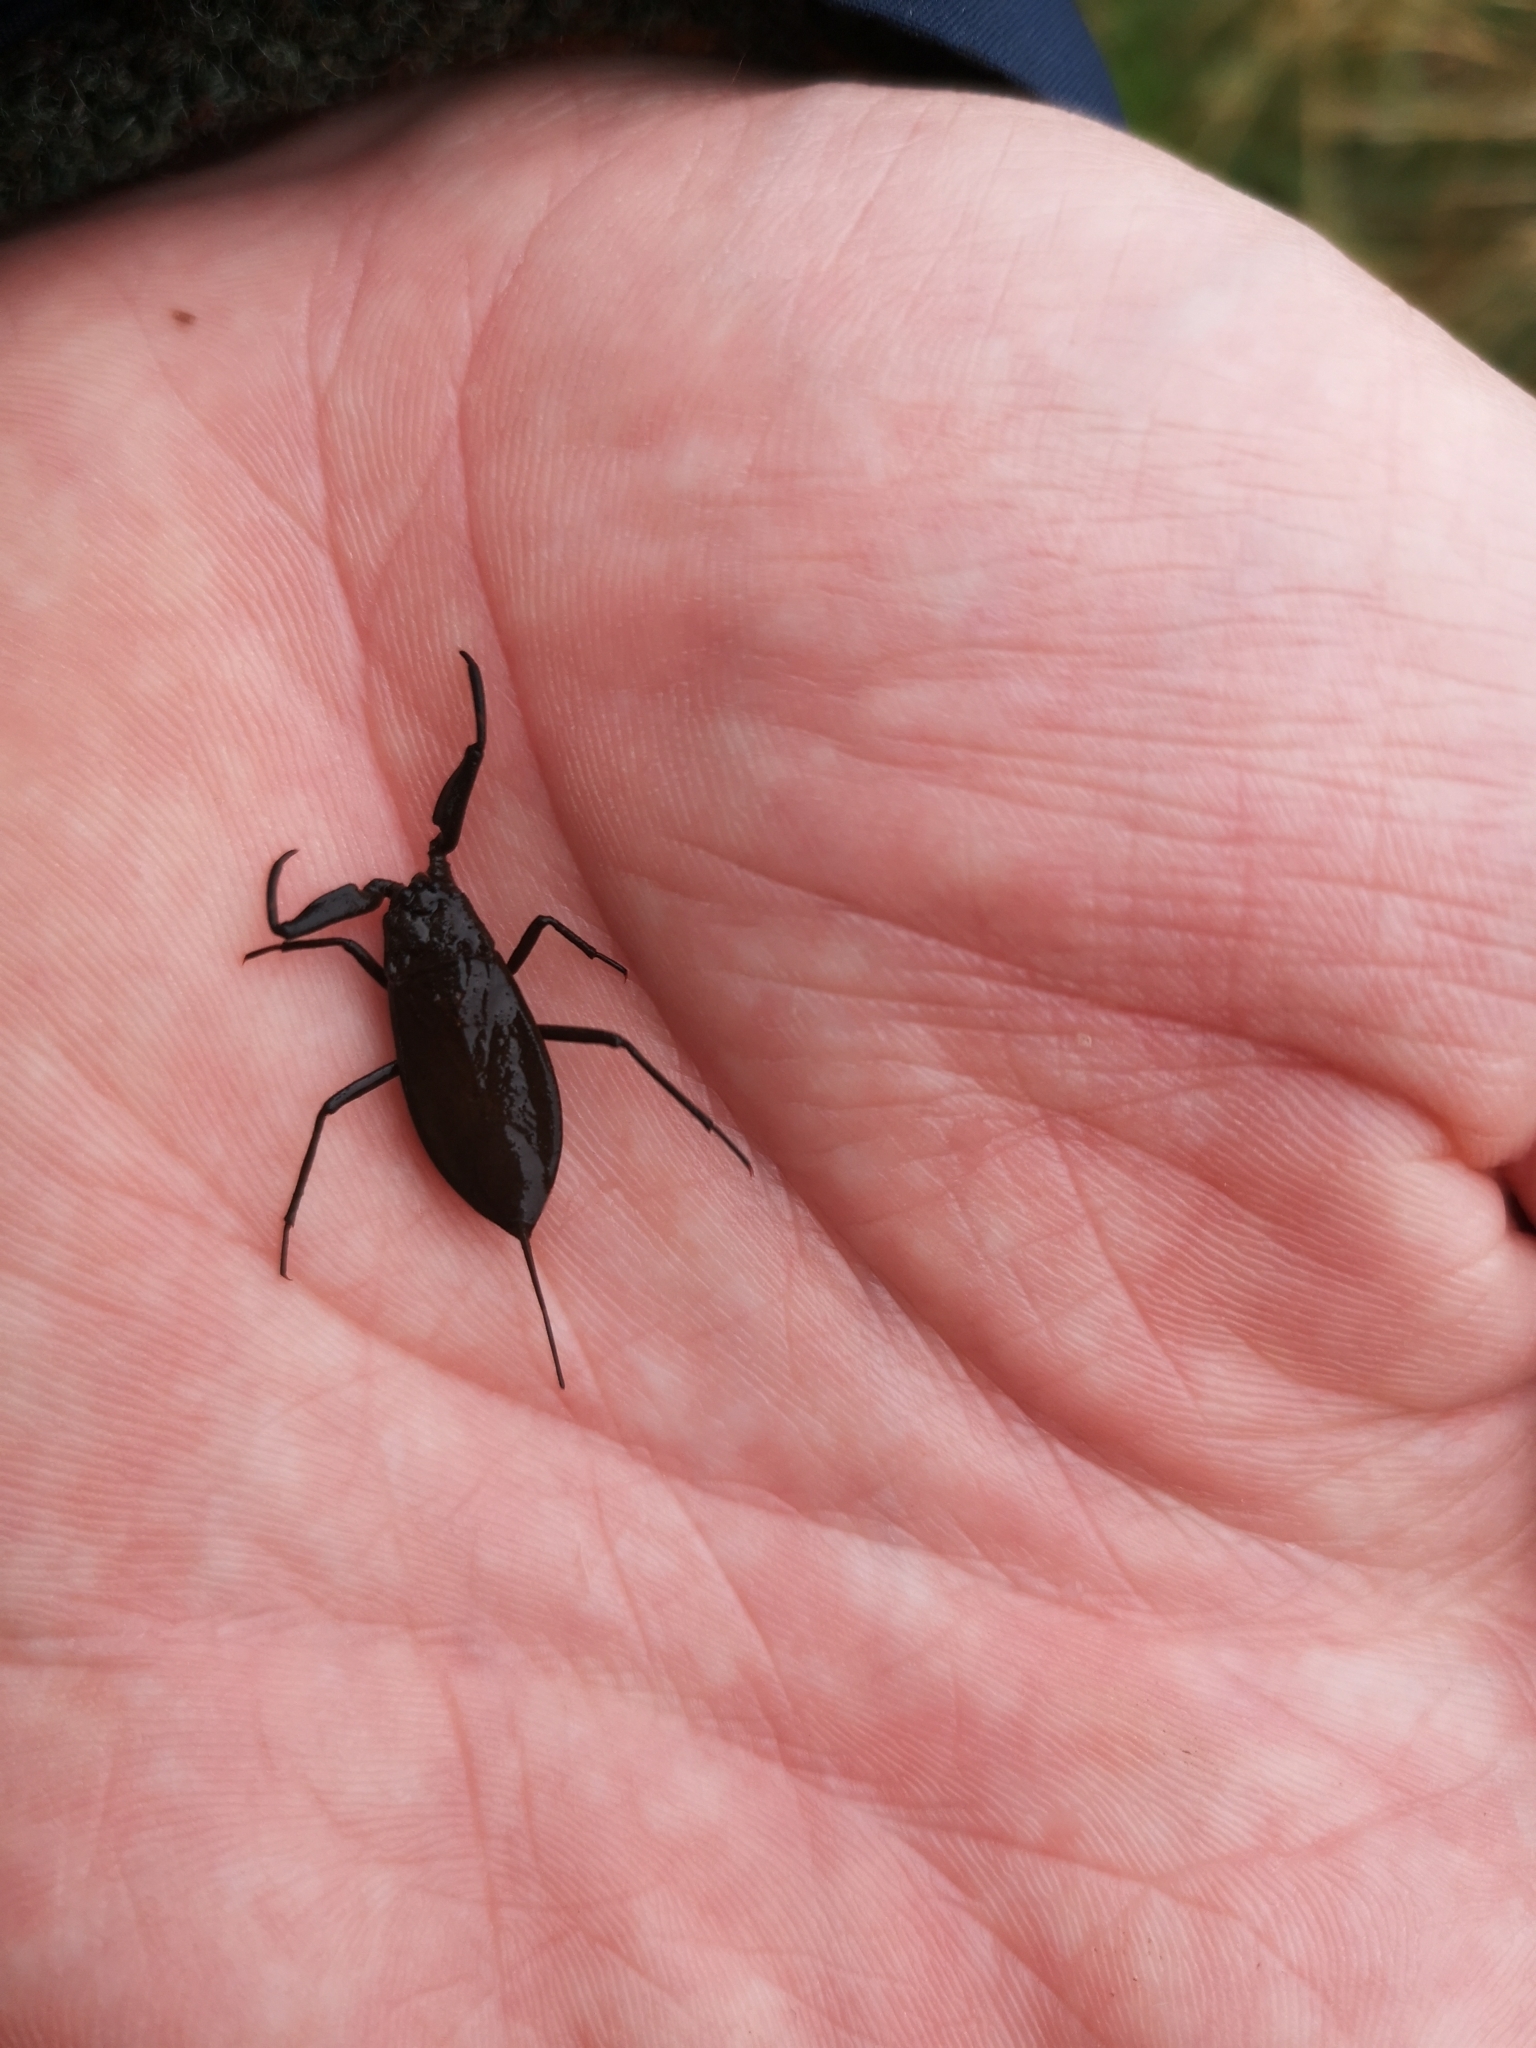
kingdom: Animalia
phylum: Arthropoda
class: Insecta
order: Hemiptera
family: Nepidae
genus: Nepa
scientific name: Nepa cinerea
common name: Water scorpion
